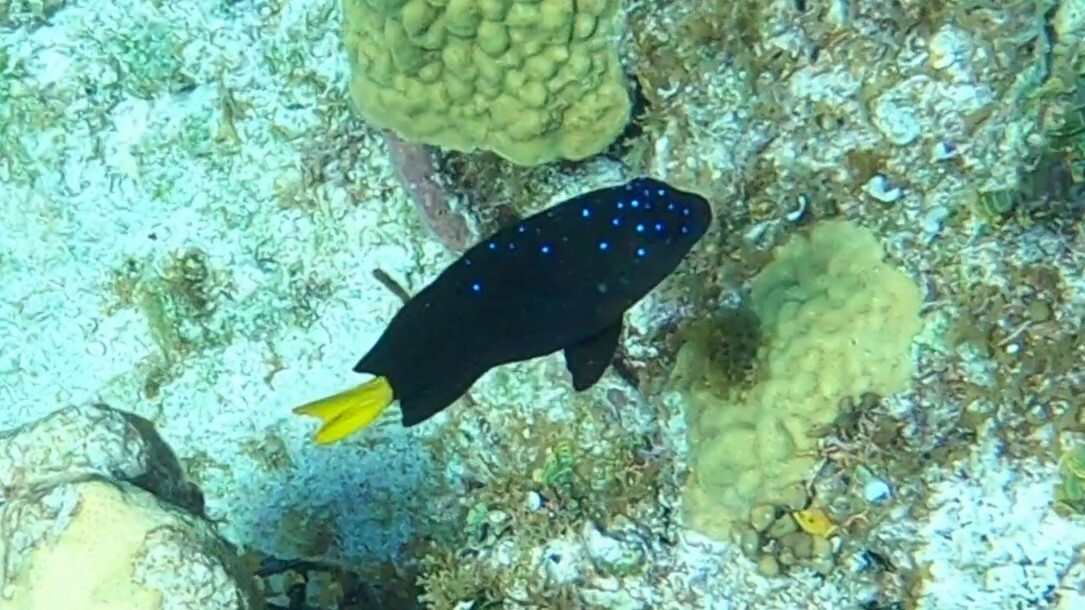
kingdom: Animalia
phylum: Chordata
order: Perciformes
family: Pomacentridae
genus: Microspathodon
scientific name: Microspathodon chrysurus
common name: Yellowtail damselfish
